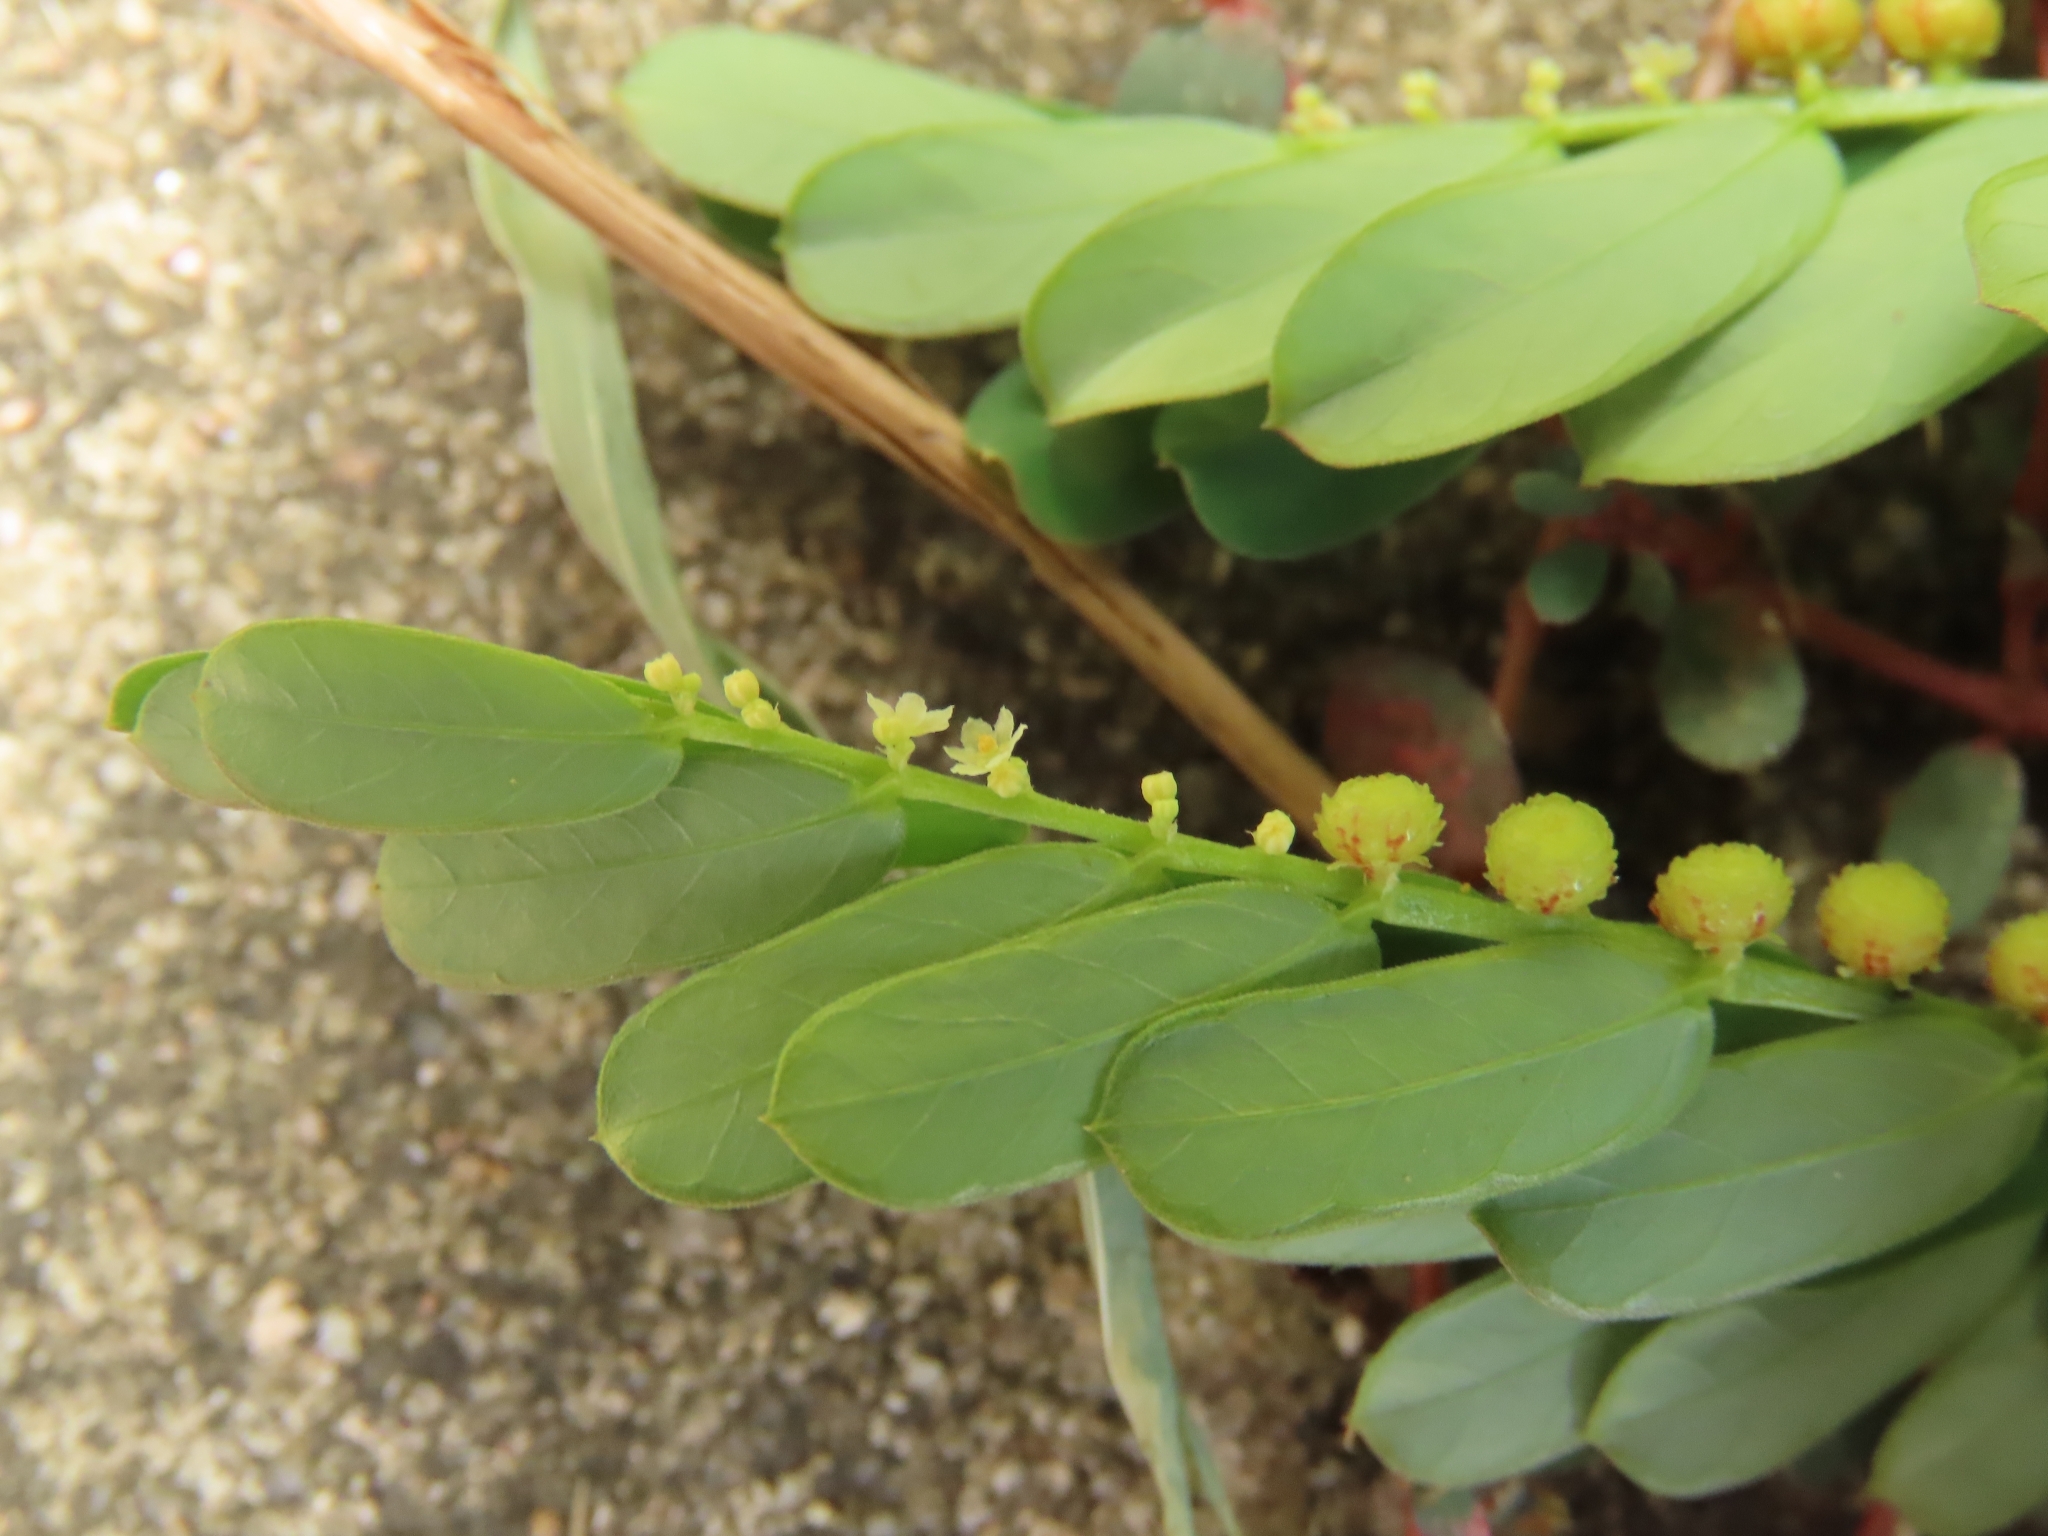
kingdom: Plantae
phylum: Tracheophyta
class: Magnoliopsida
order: Malpighiales
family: Phyllanthaceae
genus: Phyllanthus
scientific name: Phyllanthus urinaria
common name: Chamber bitter
